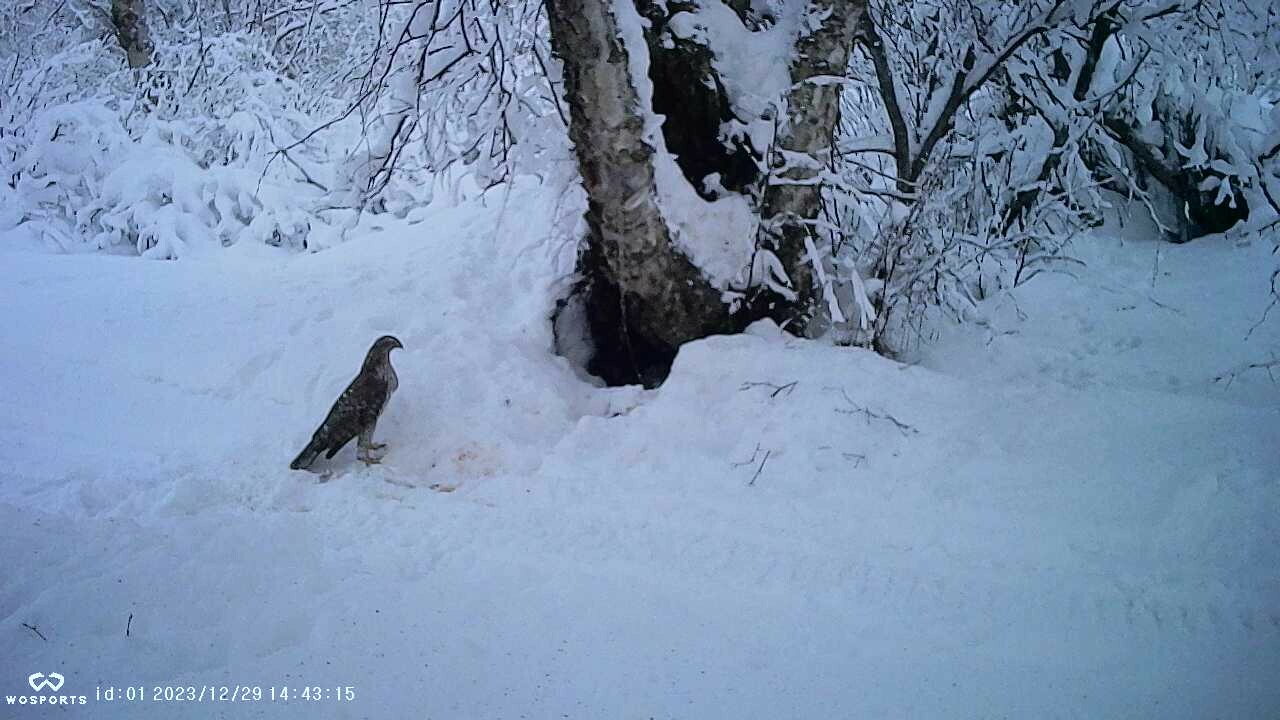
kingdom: Animalia
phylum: Chordata
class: Aves
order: Accipitriformes
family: Accipitridae
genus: Accipiter
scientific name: Accipiter gentilis
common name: Northern goshawk
